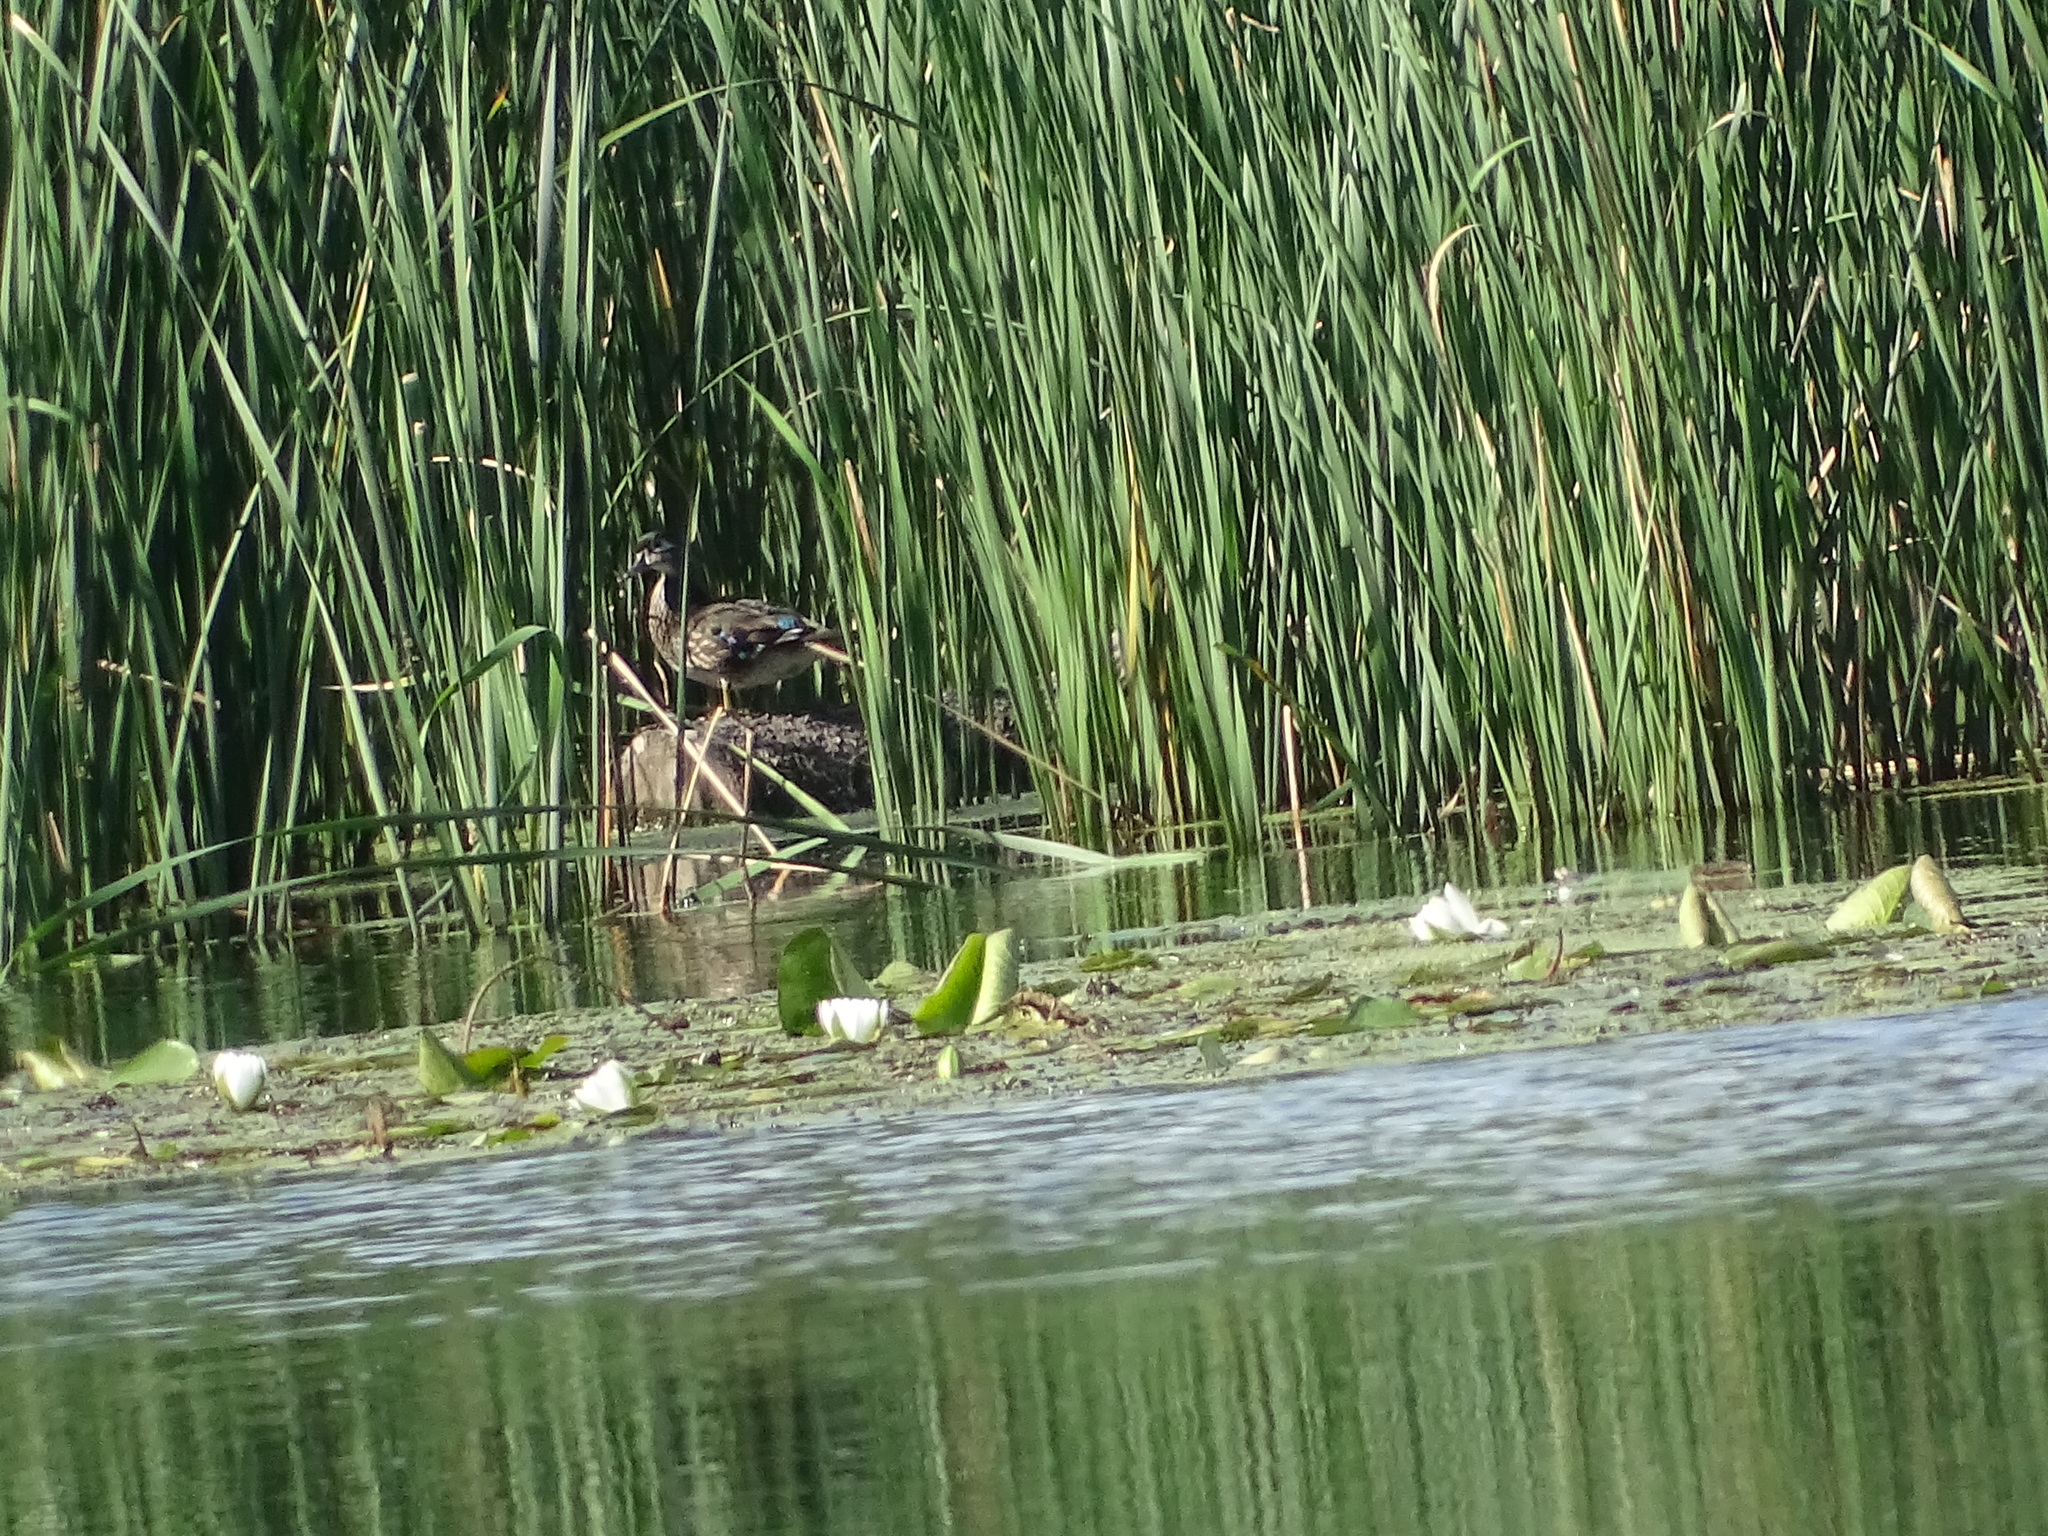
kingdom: Animalia
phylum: Chordata
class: Aves
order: Anseriformes
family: Anatidae
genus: Aix
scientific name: Aix sponsa
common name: Wood duck
